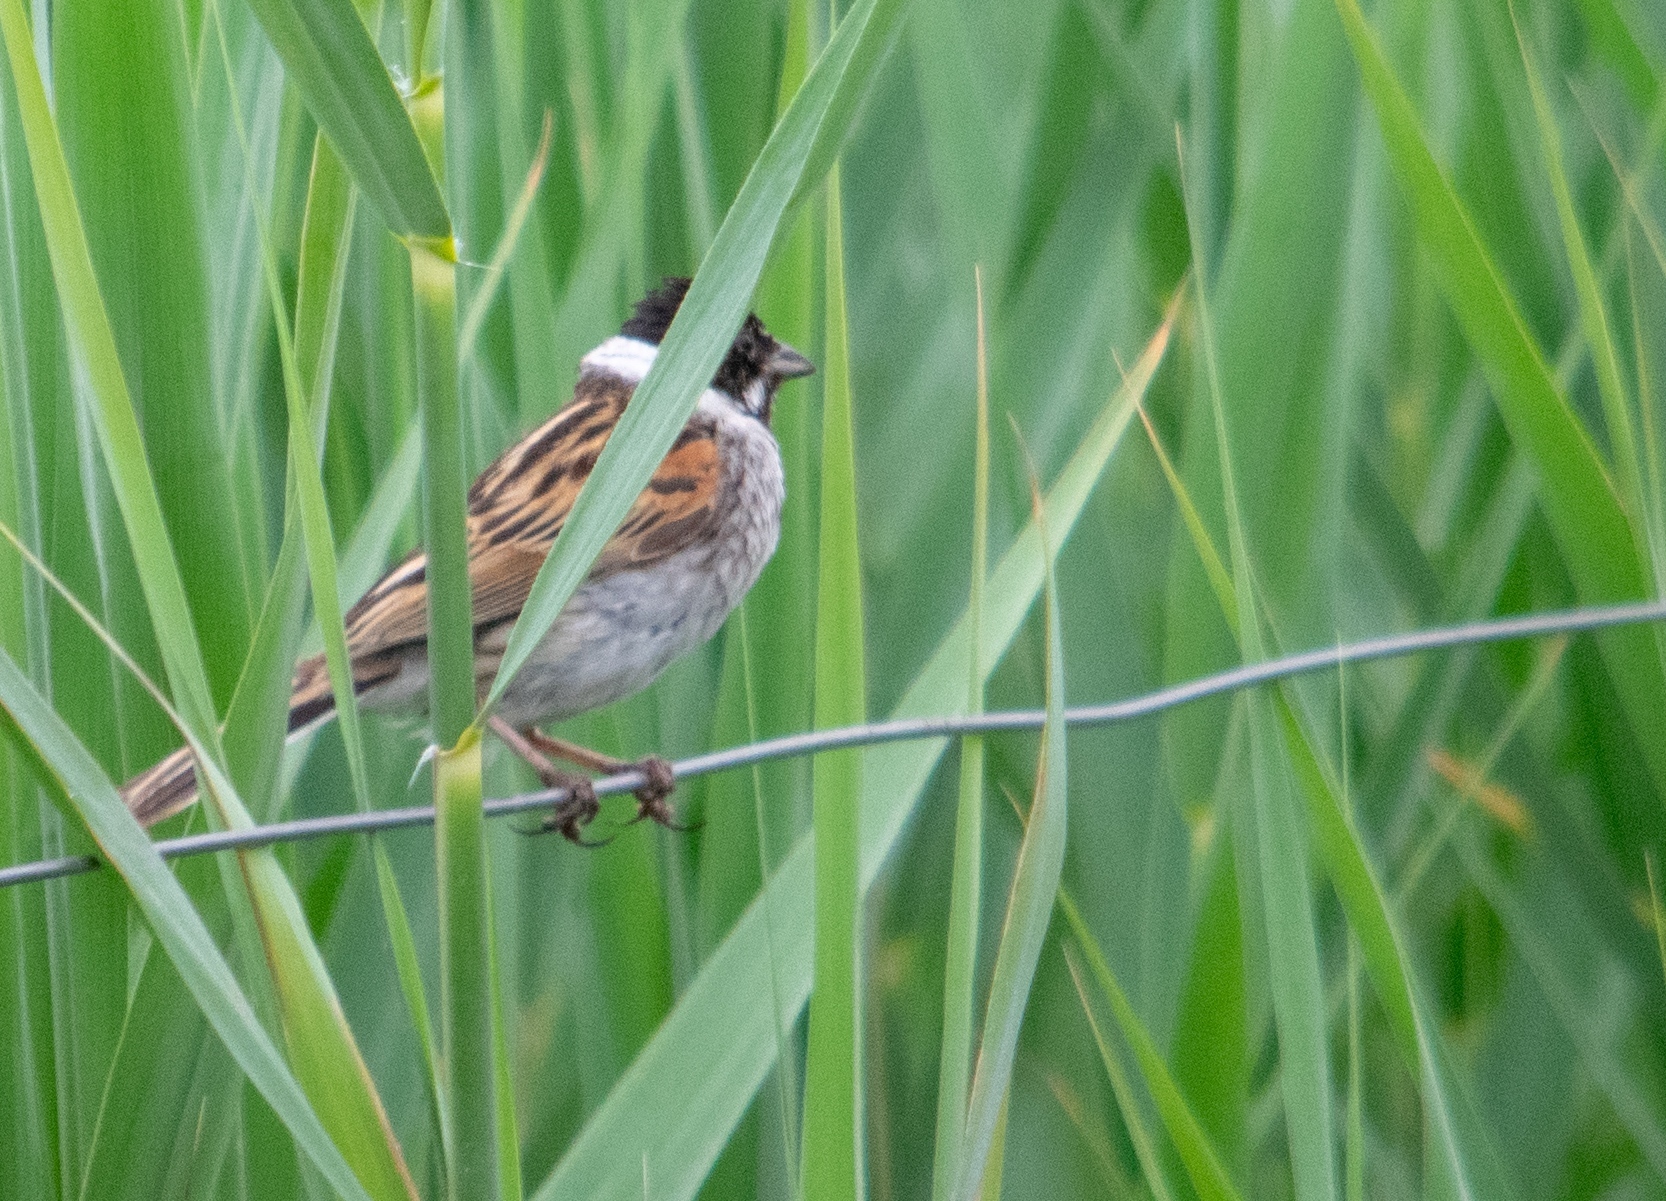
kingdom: Animalia
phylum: Chordata
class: Aves
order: Passeriformes
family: Emberizidae
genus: Emberiza
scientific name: Emberiza schoeniclus
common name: Reed bunting
